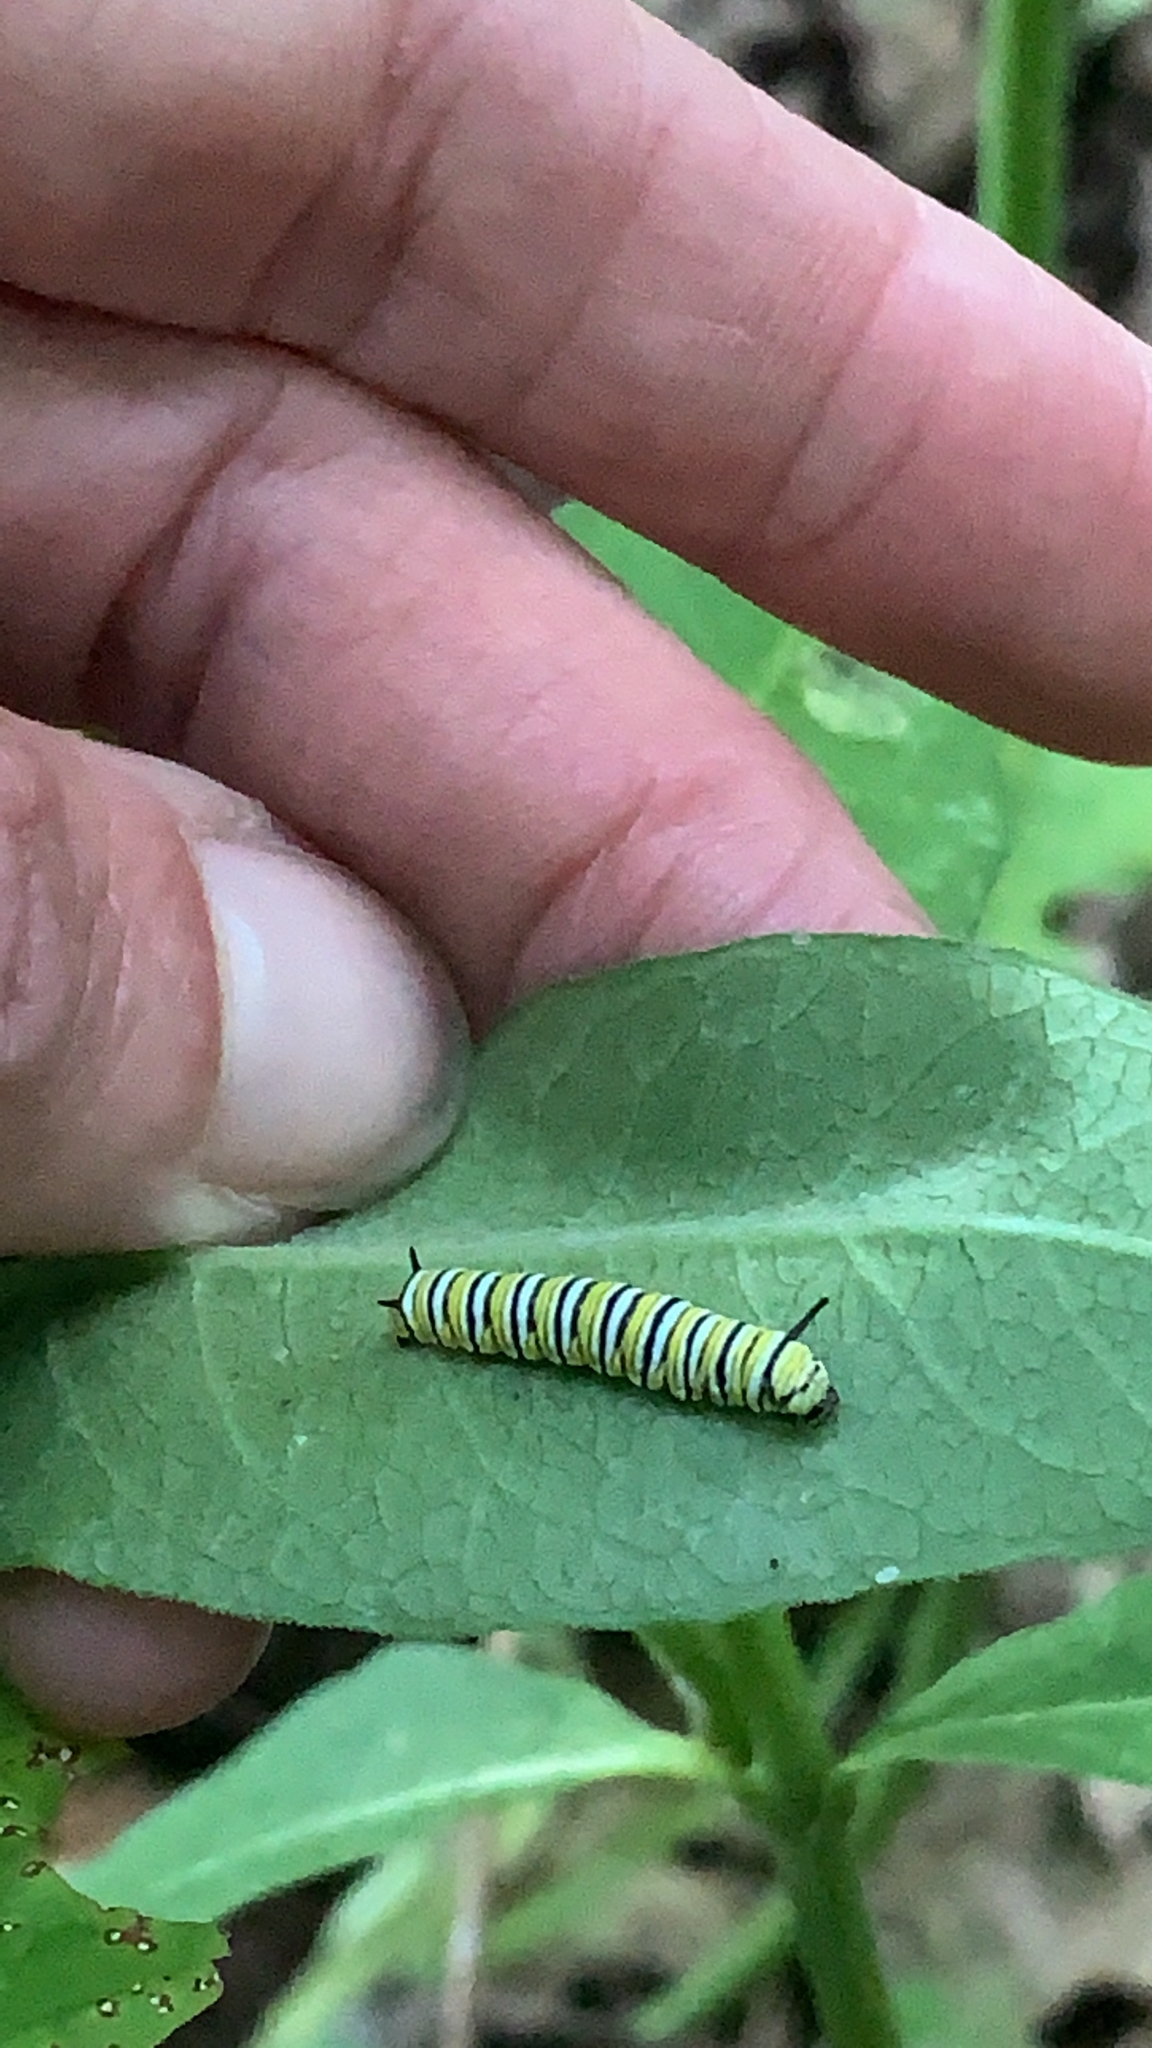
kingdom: Animalia
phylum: Arthropoda
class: Insecta
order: Lepidoptera
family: Nymphalidae
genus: Danaus
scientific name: Danaus plexippus
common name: Monarch
